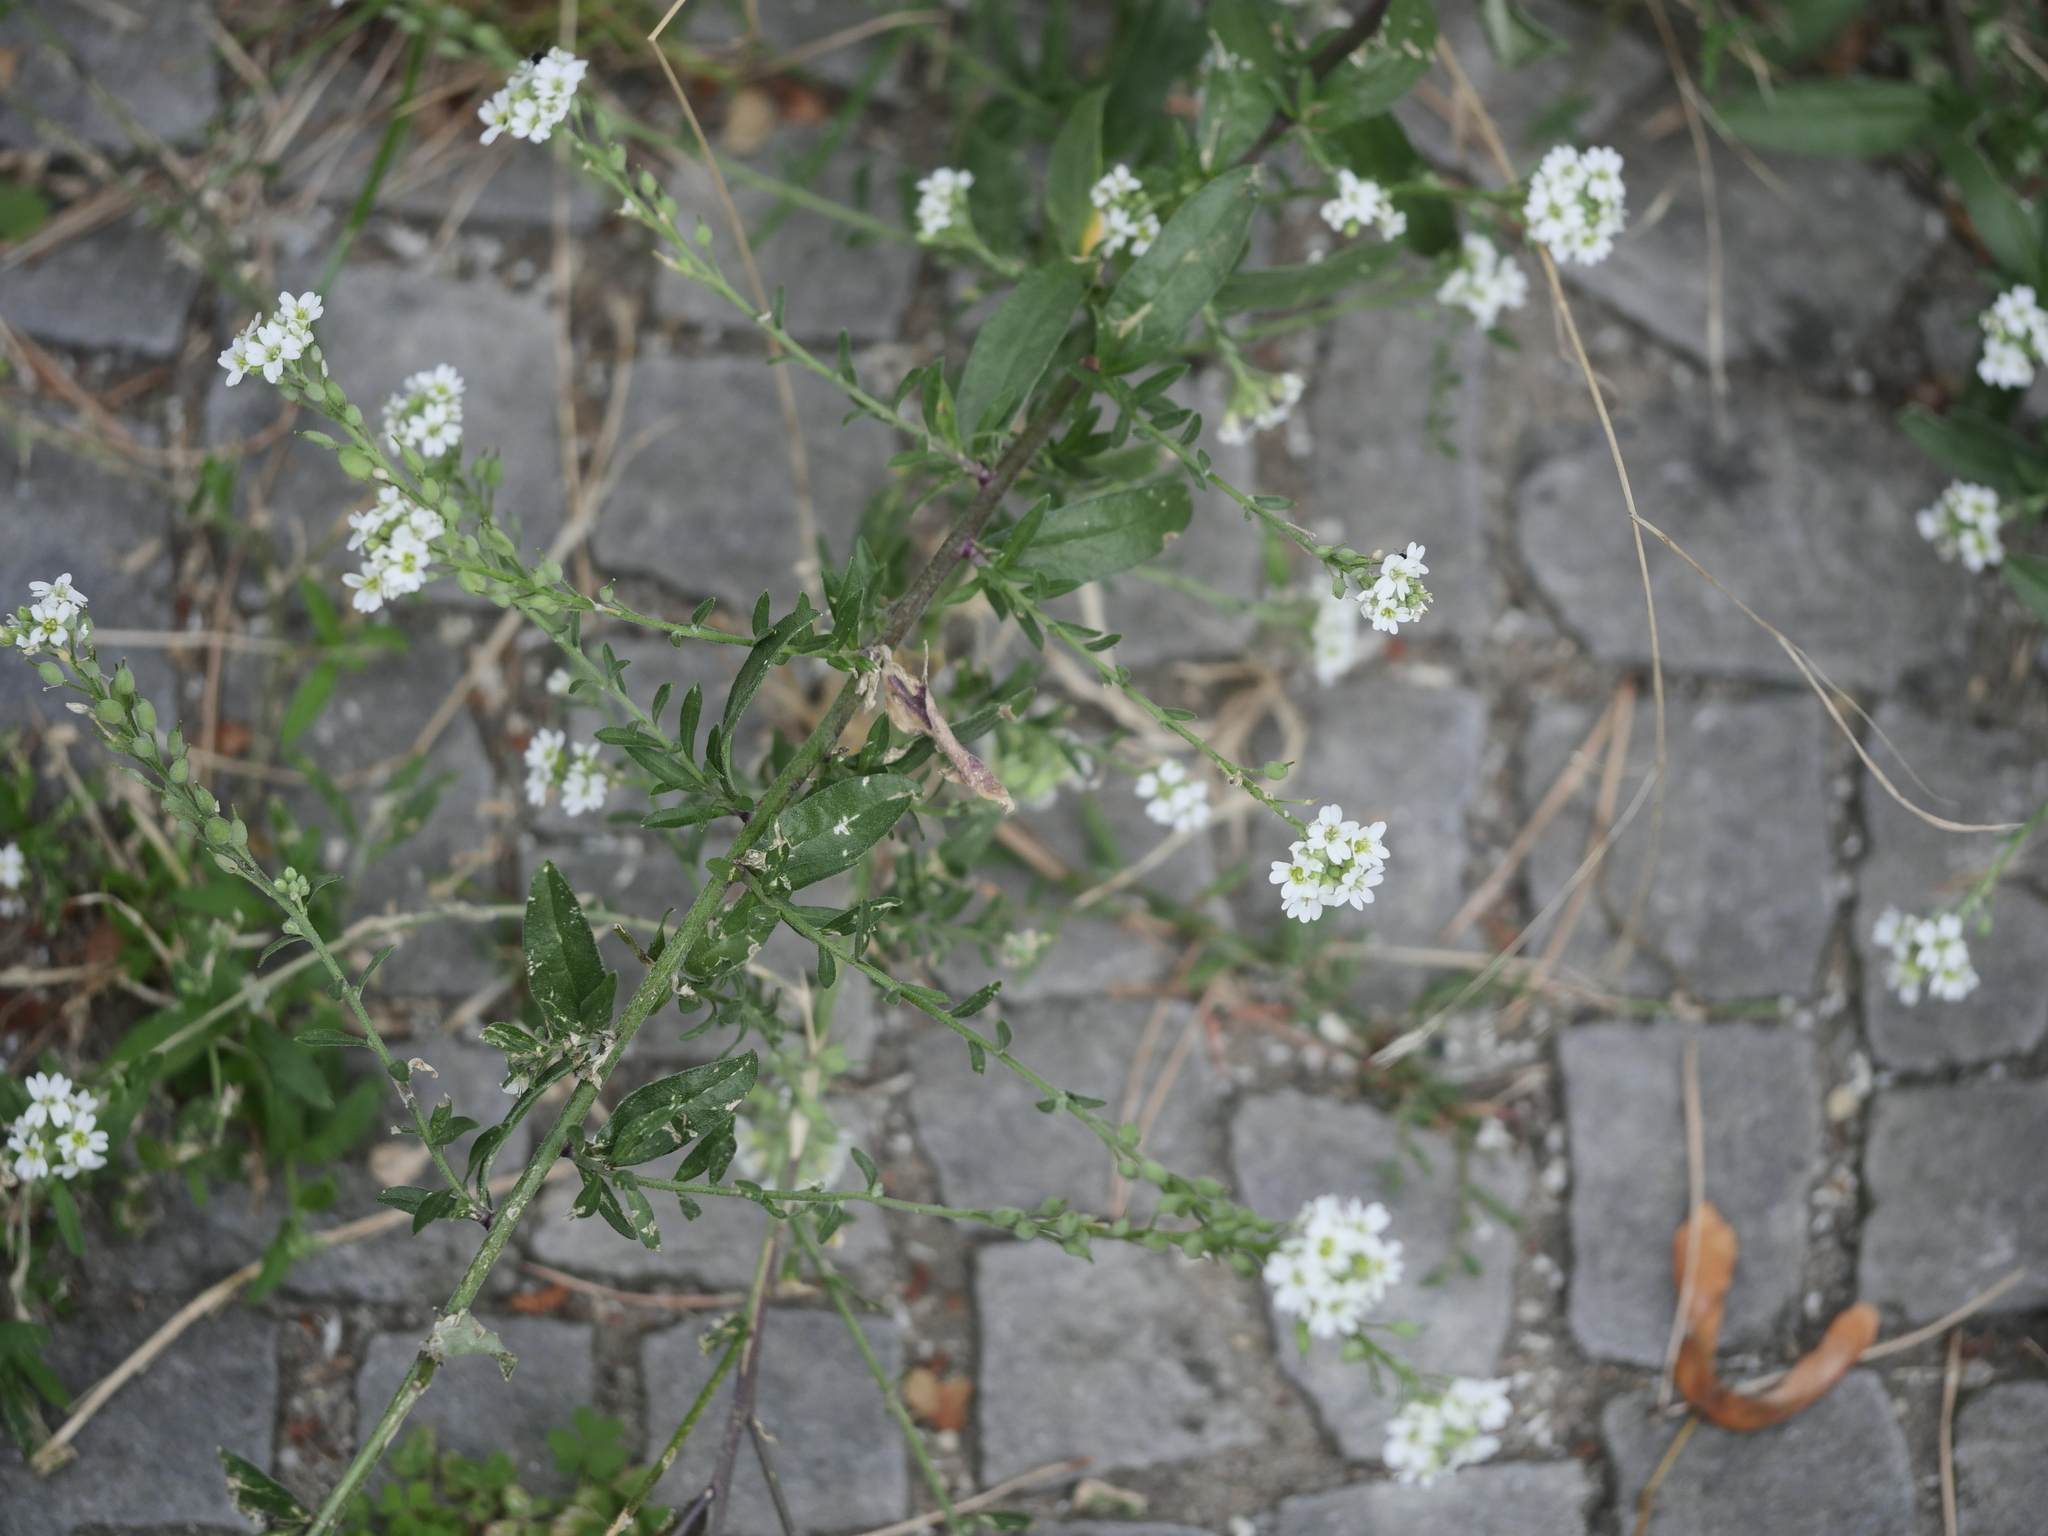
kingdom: Plantae
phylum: Tracheophyta
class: Magnoliopsida
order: Brassicales
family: Brassicaceae
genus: Berteroa
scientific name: Berteroa incana
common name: Hoary alison
